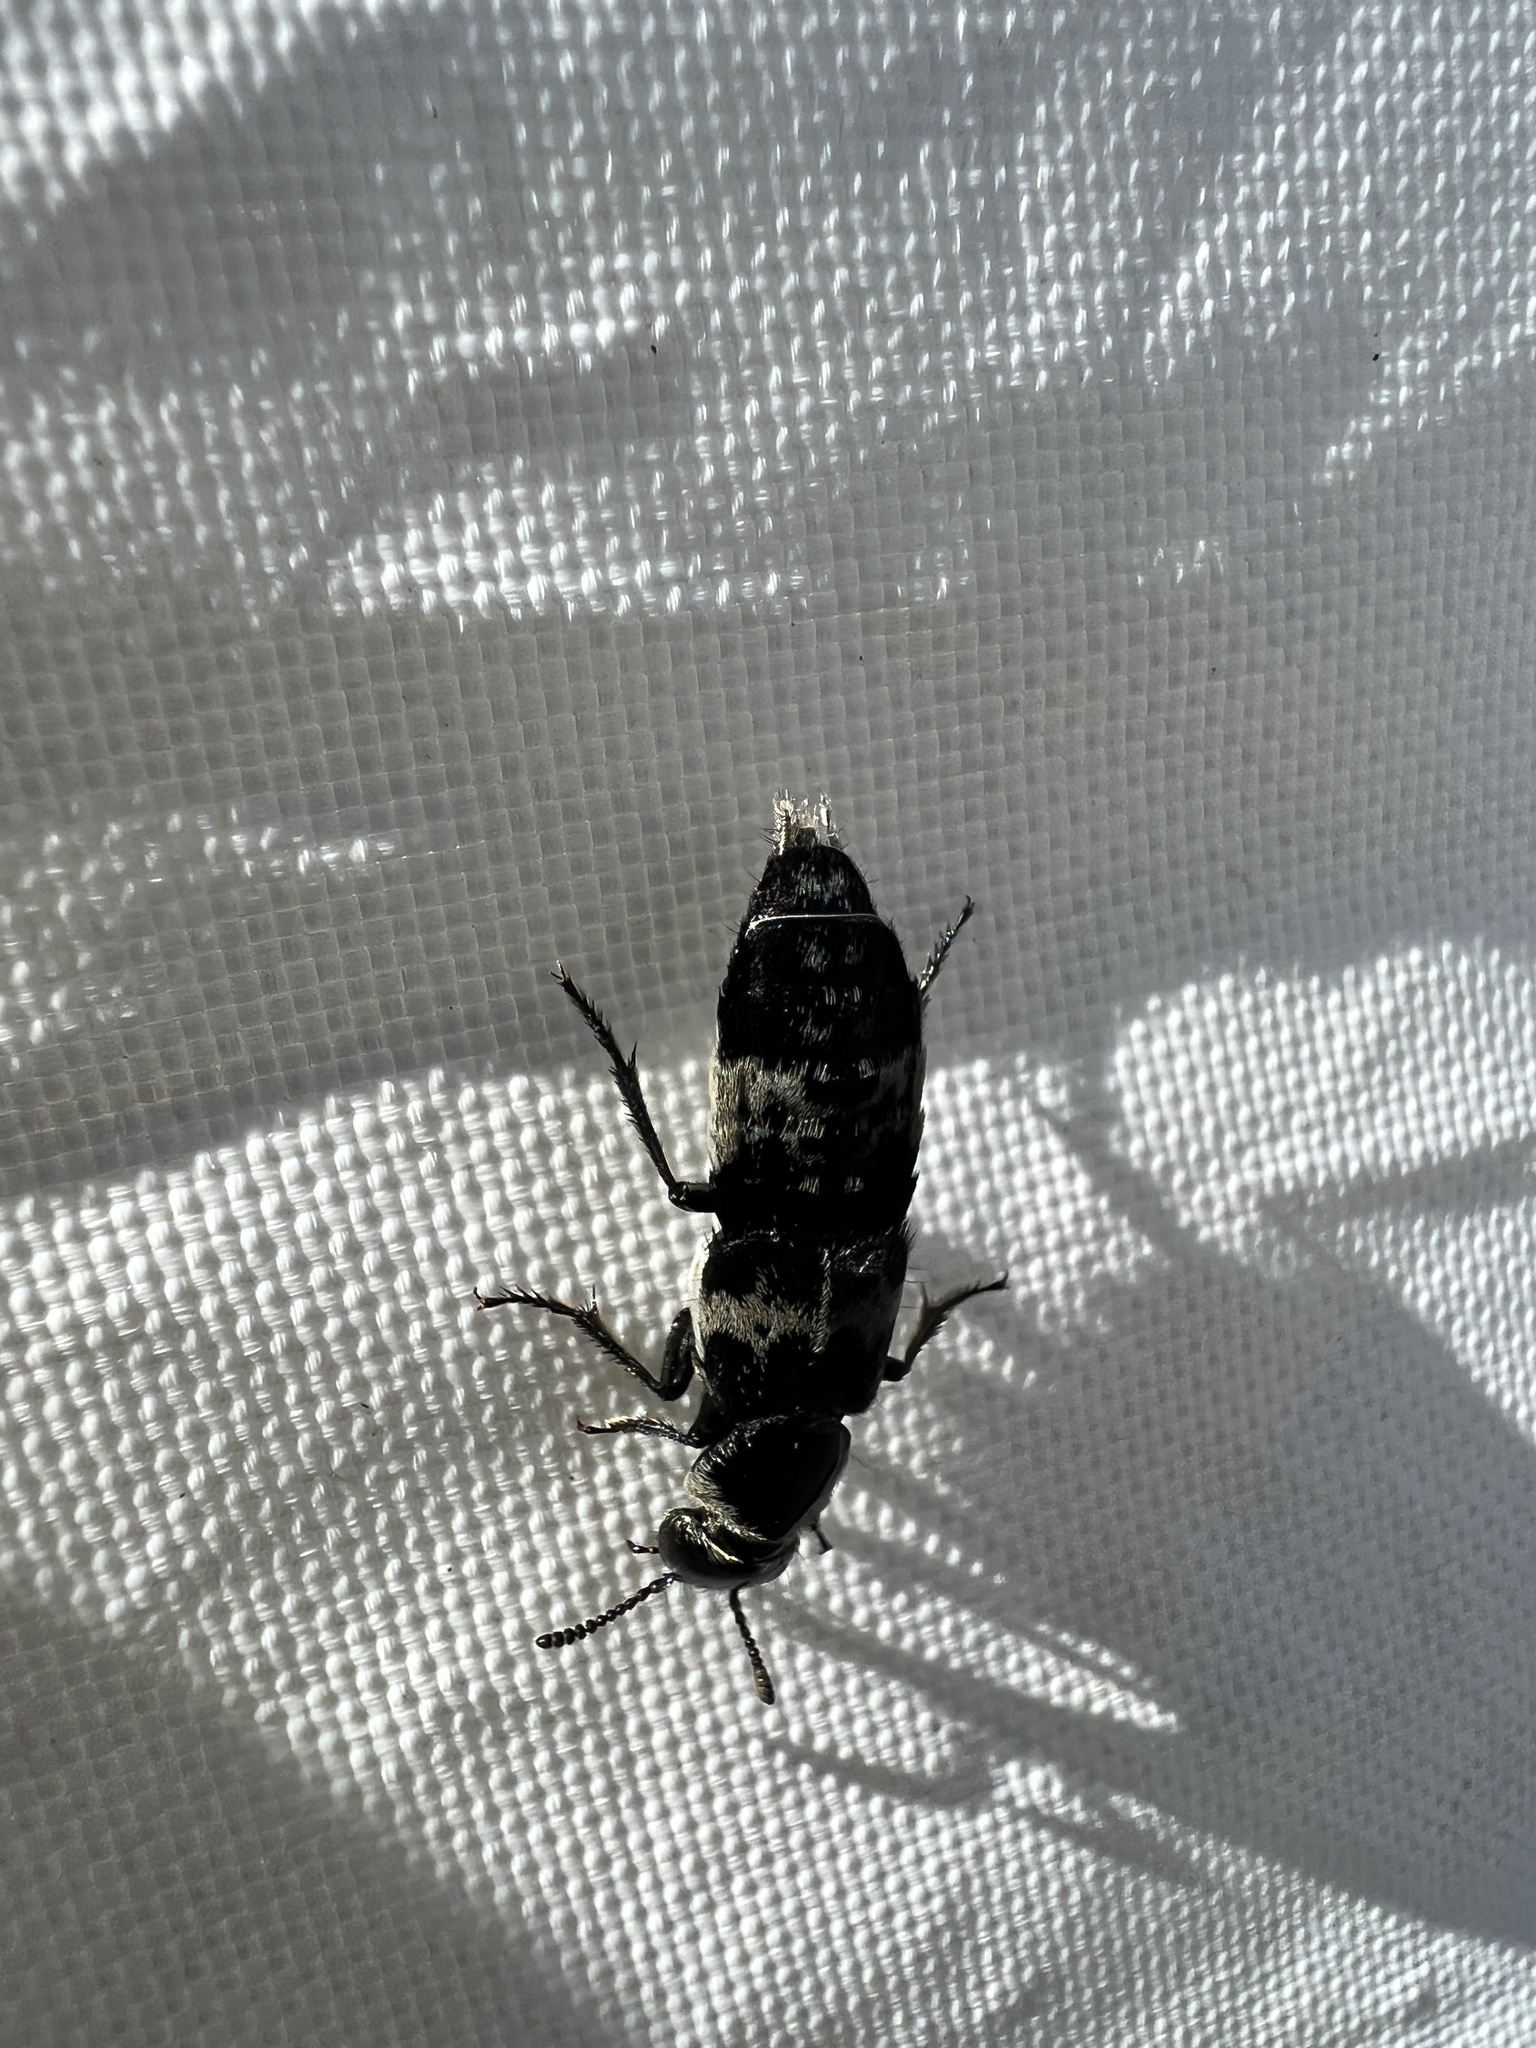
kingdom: Animalia
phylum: Arthropoda
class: Insecta
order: Coleoptera
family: Staphylinidae
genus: Creophilus
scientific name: Creophilus maxillosus
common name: Hairy rove beetle
